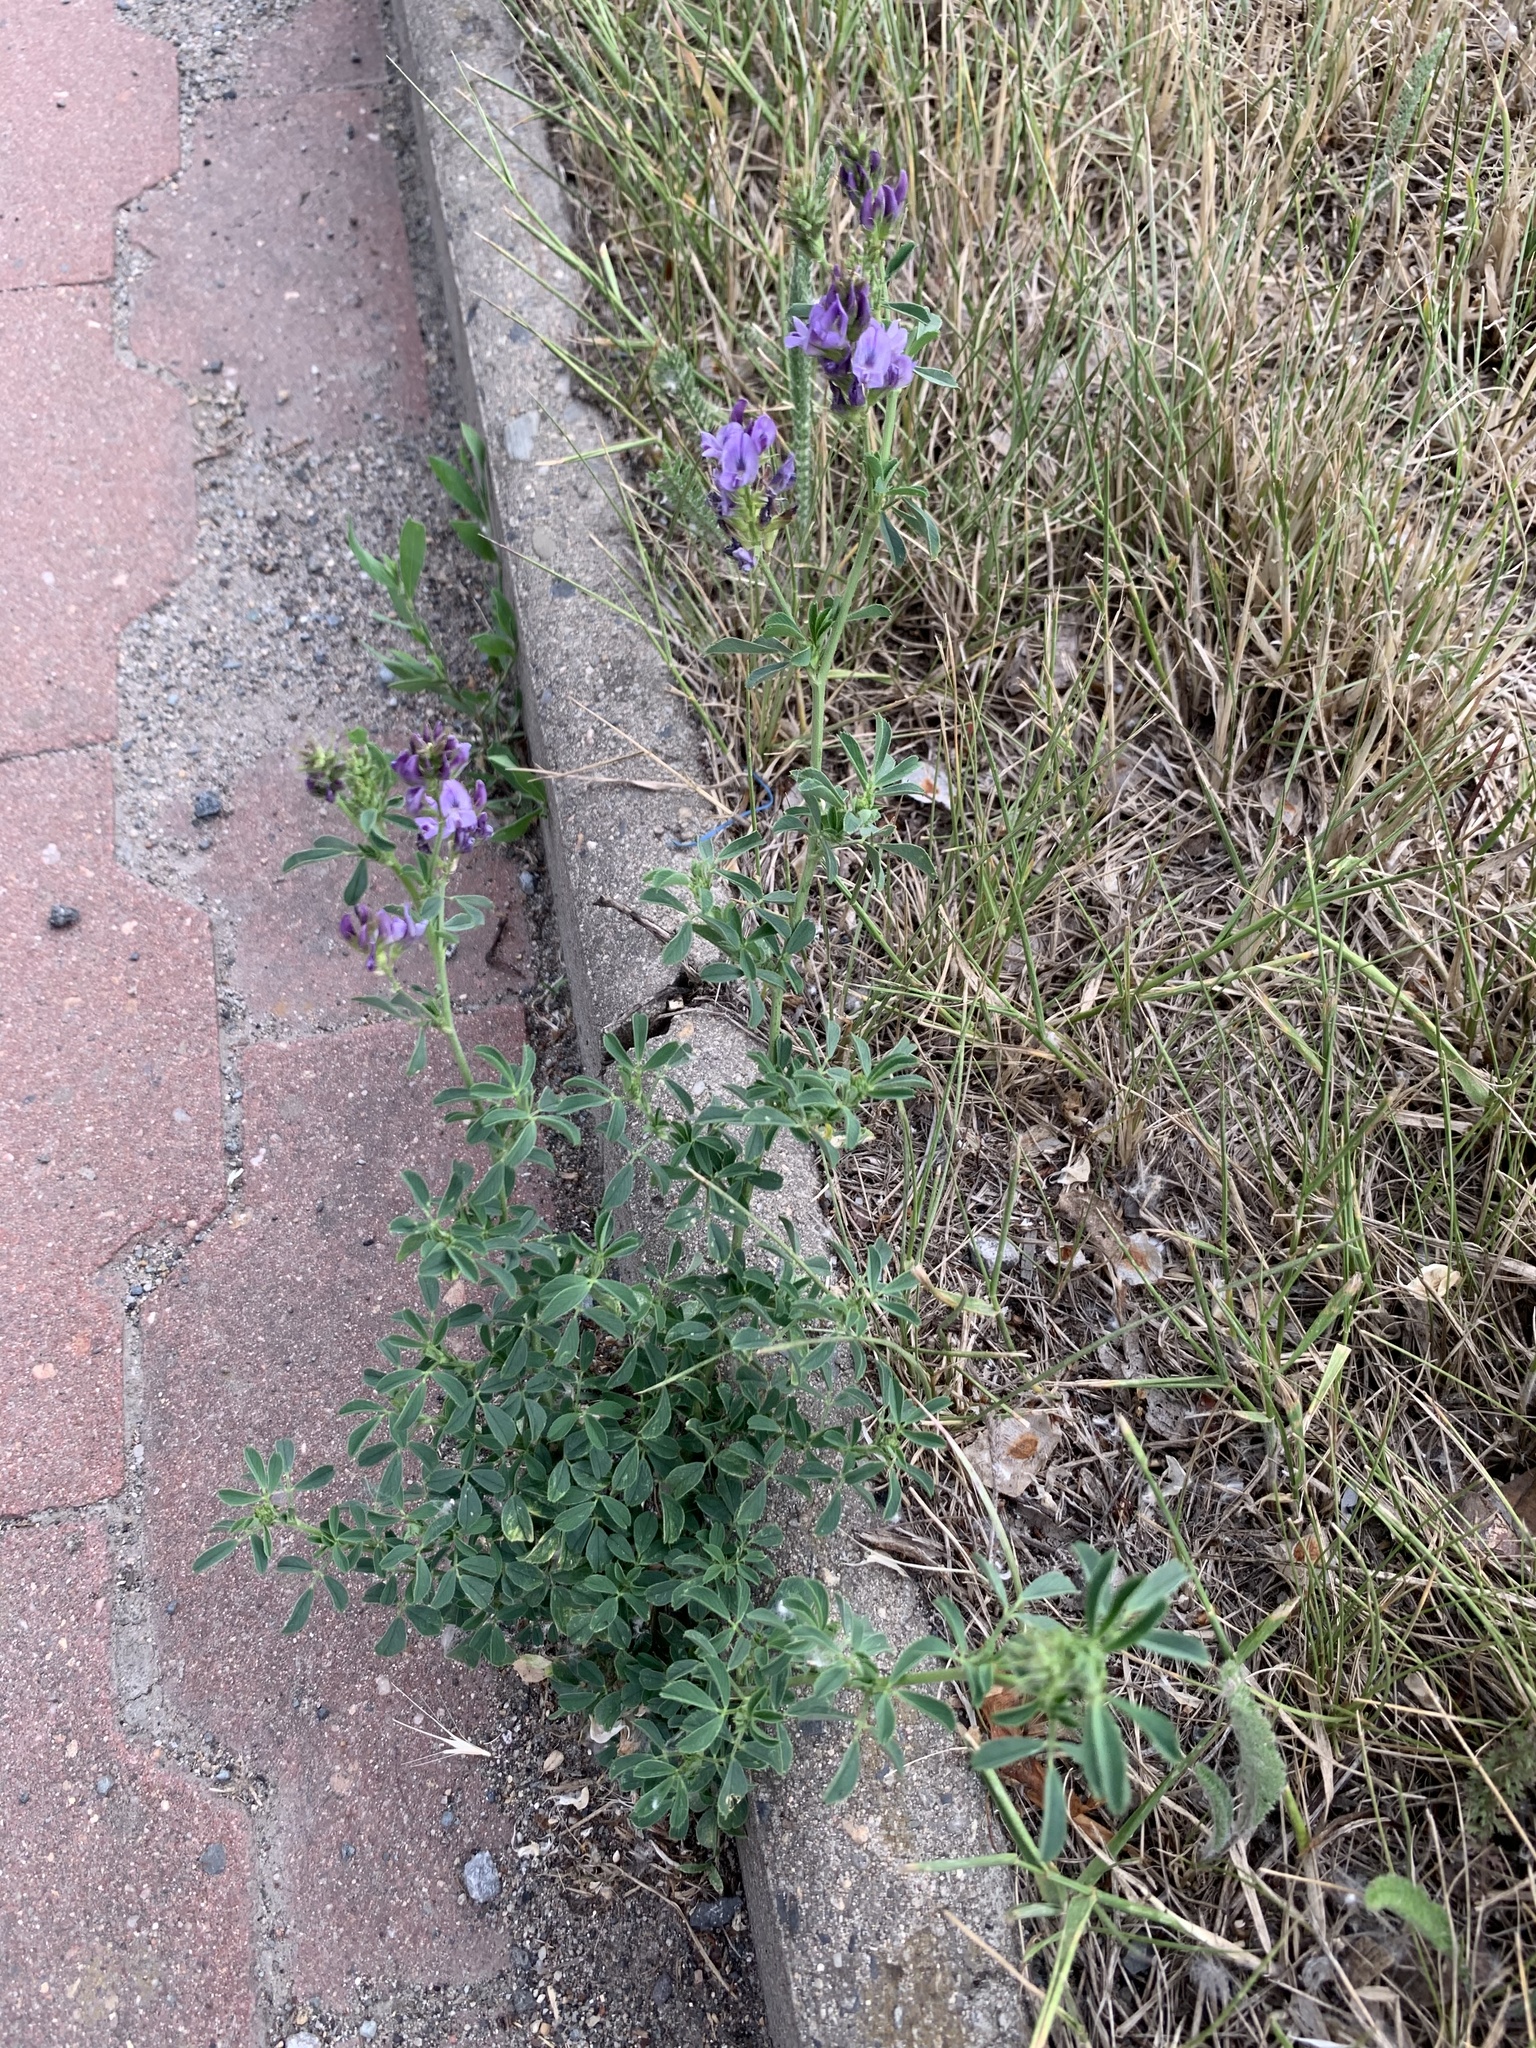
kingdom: Plantae
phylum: Tracheophyta
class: Magnoliopsida
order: Fabales
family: Fabaceae
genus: Medicago
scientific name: Medicago sativa
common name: Alfalfa
